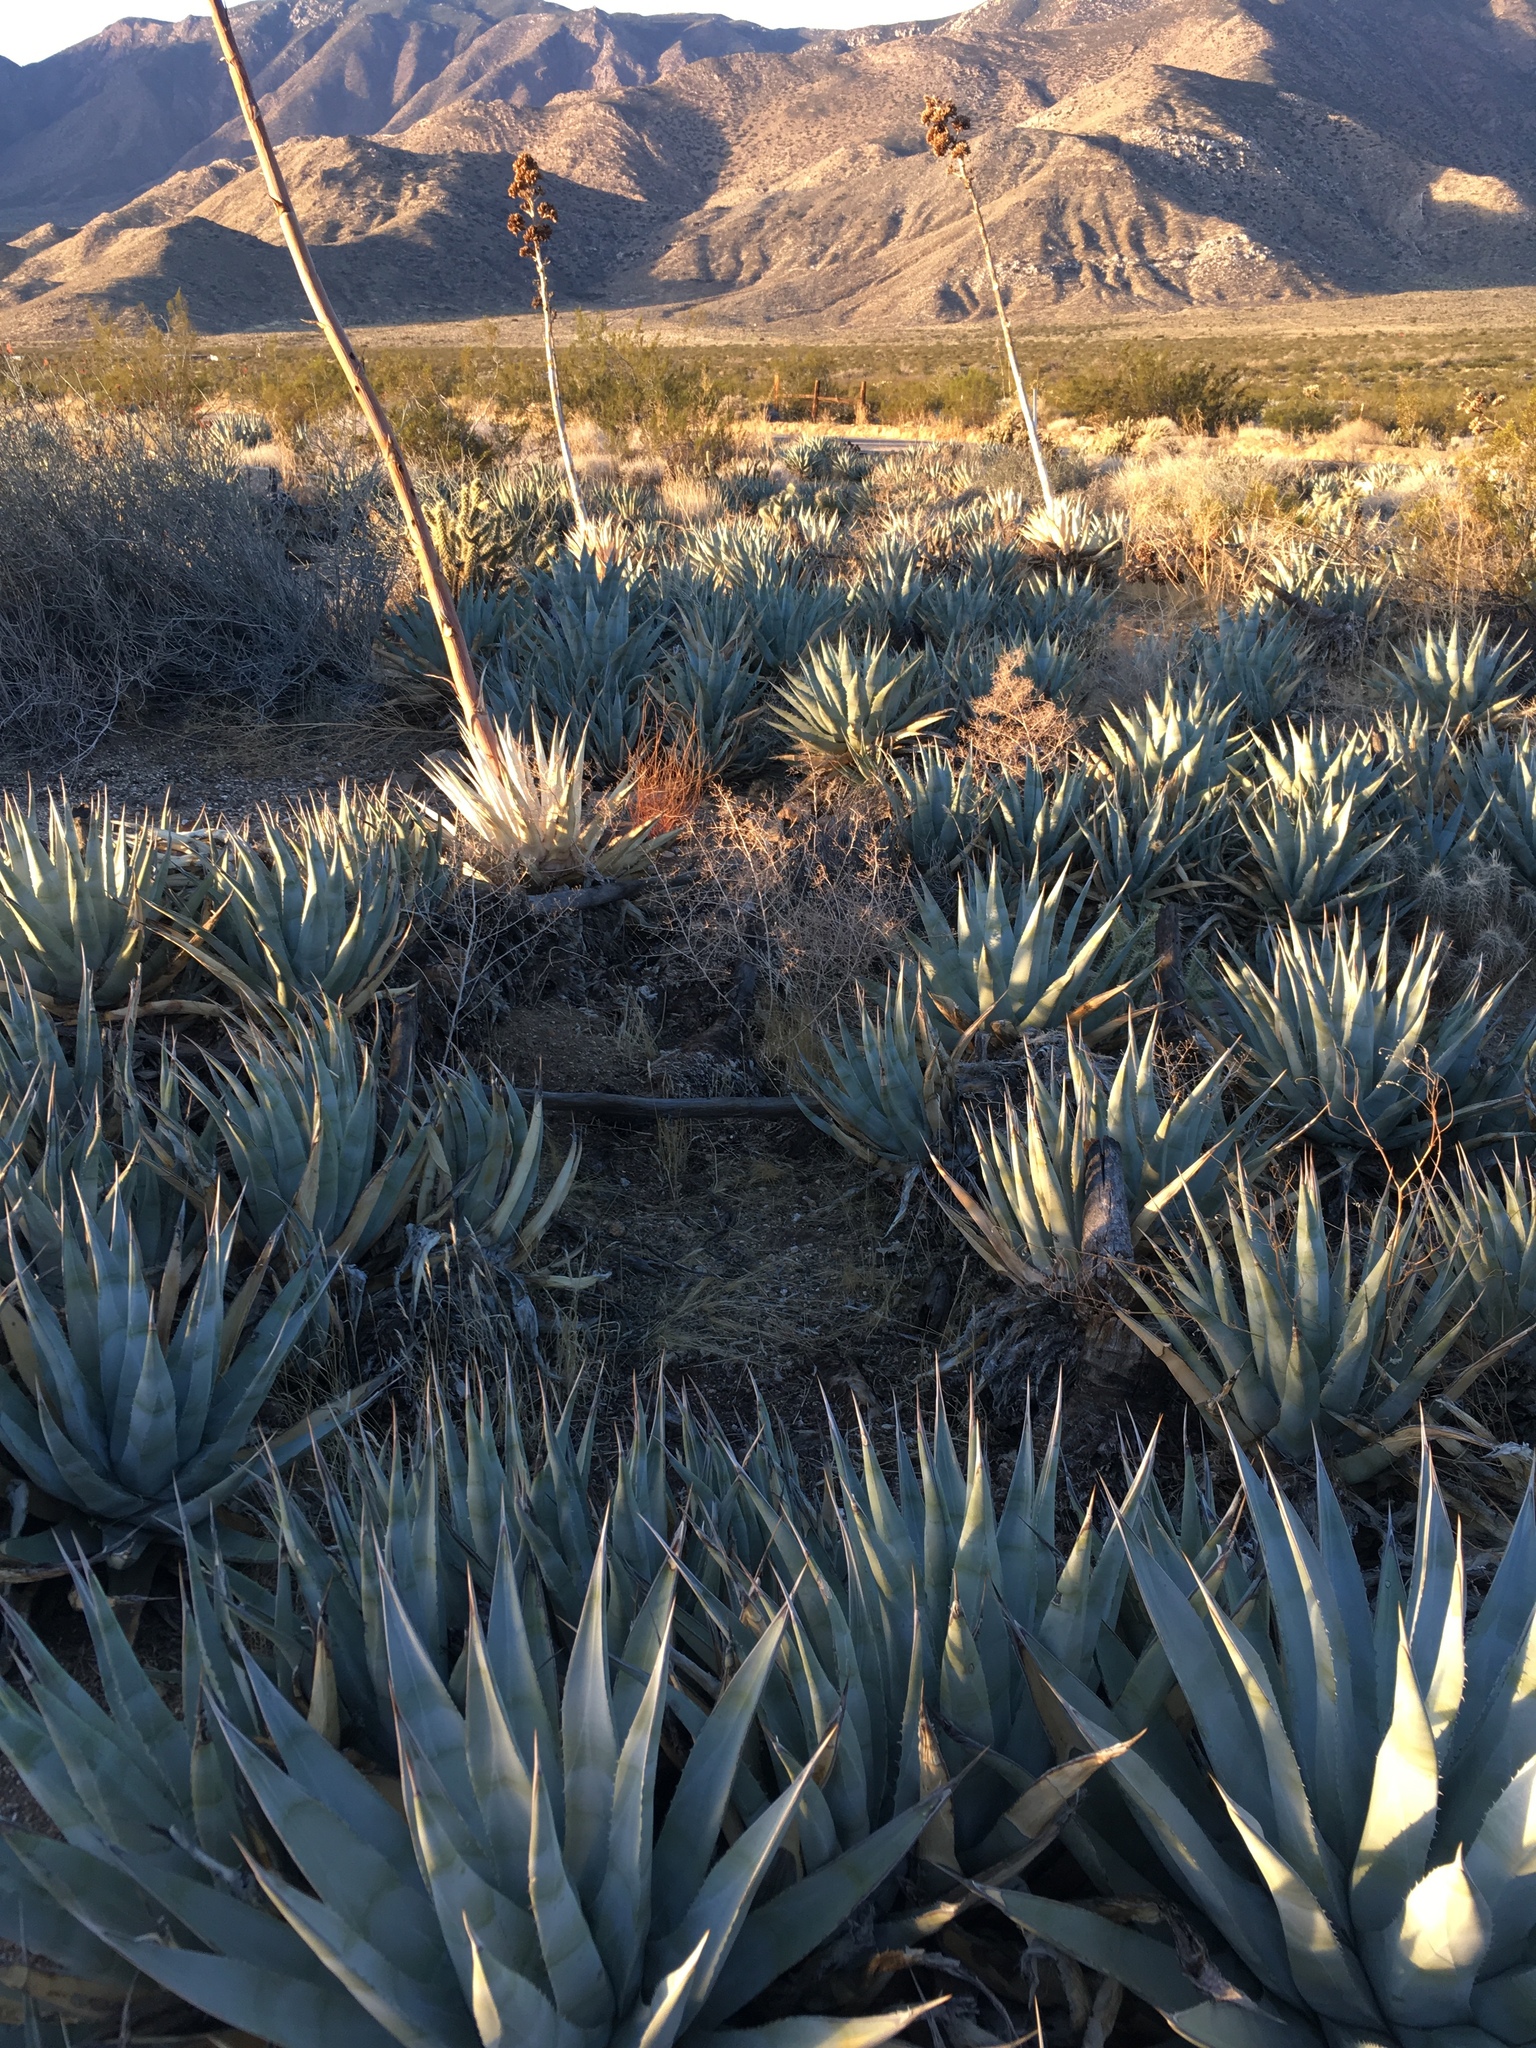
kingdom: Plantae
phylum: Tracheophyta
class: Liliopsida
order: Asparagales
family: Asparagaceae
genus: Agave
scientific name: Agave deserti
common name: Desert agave
